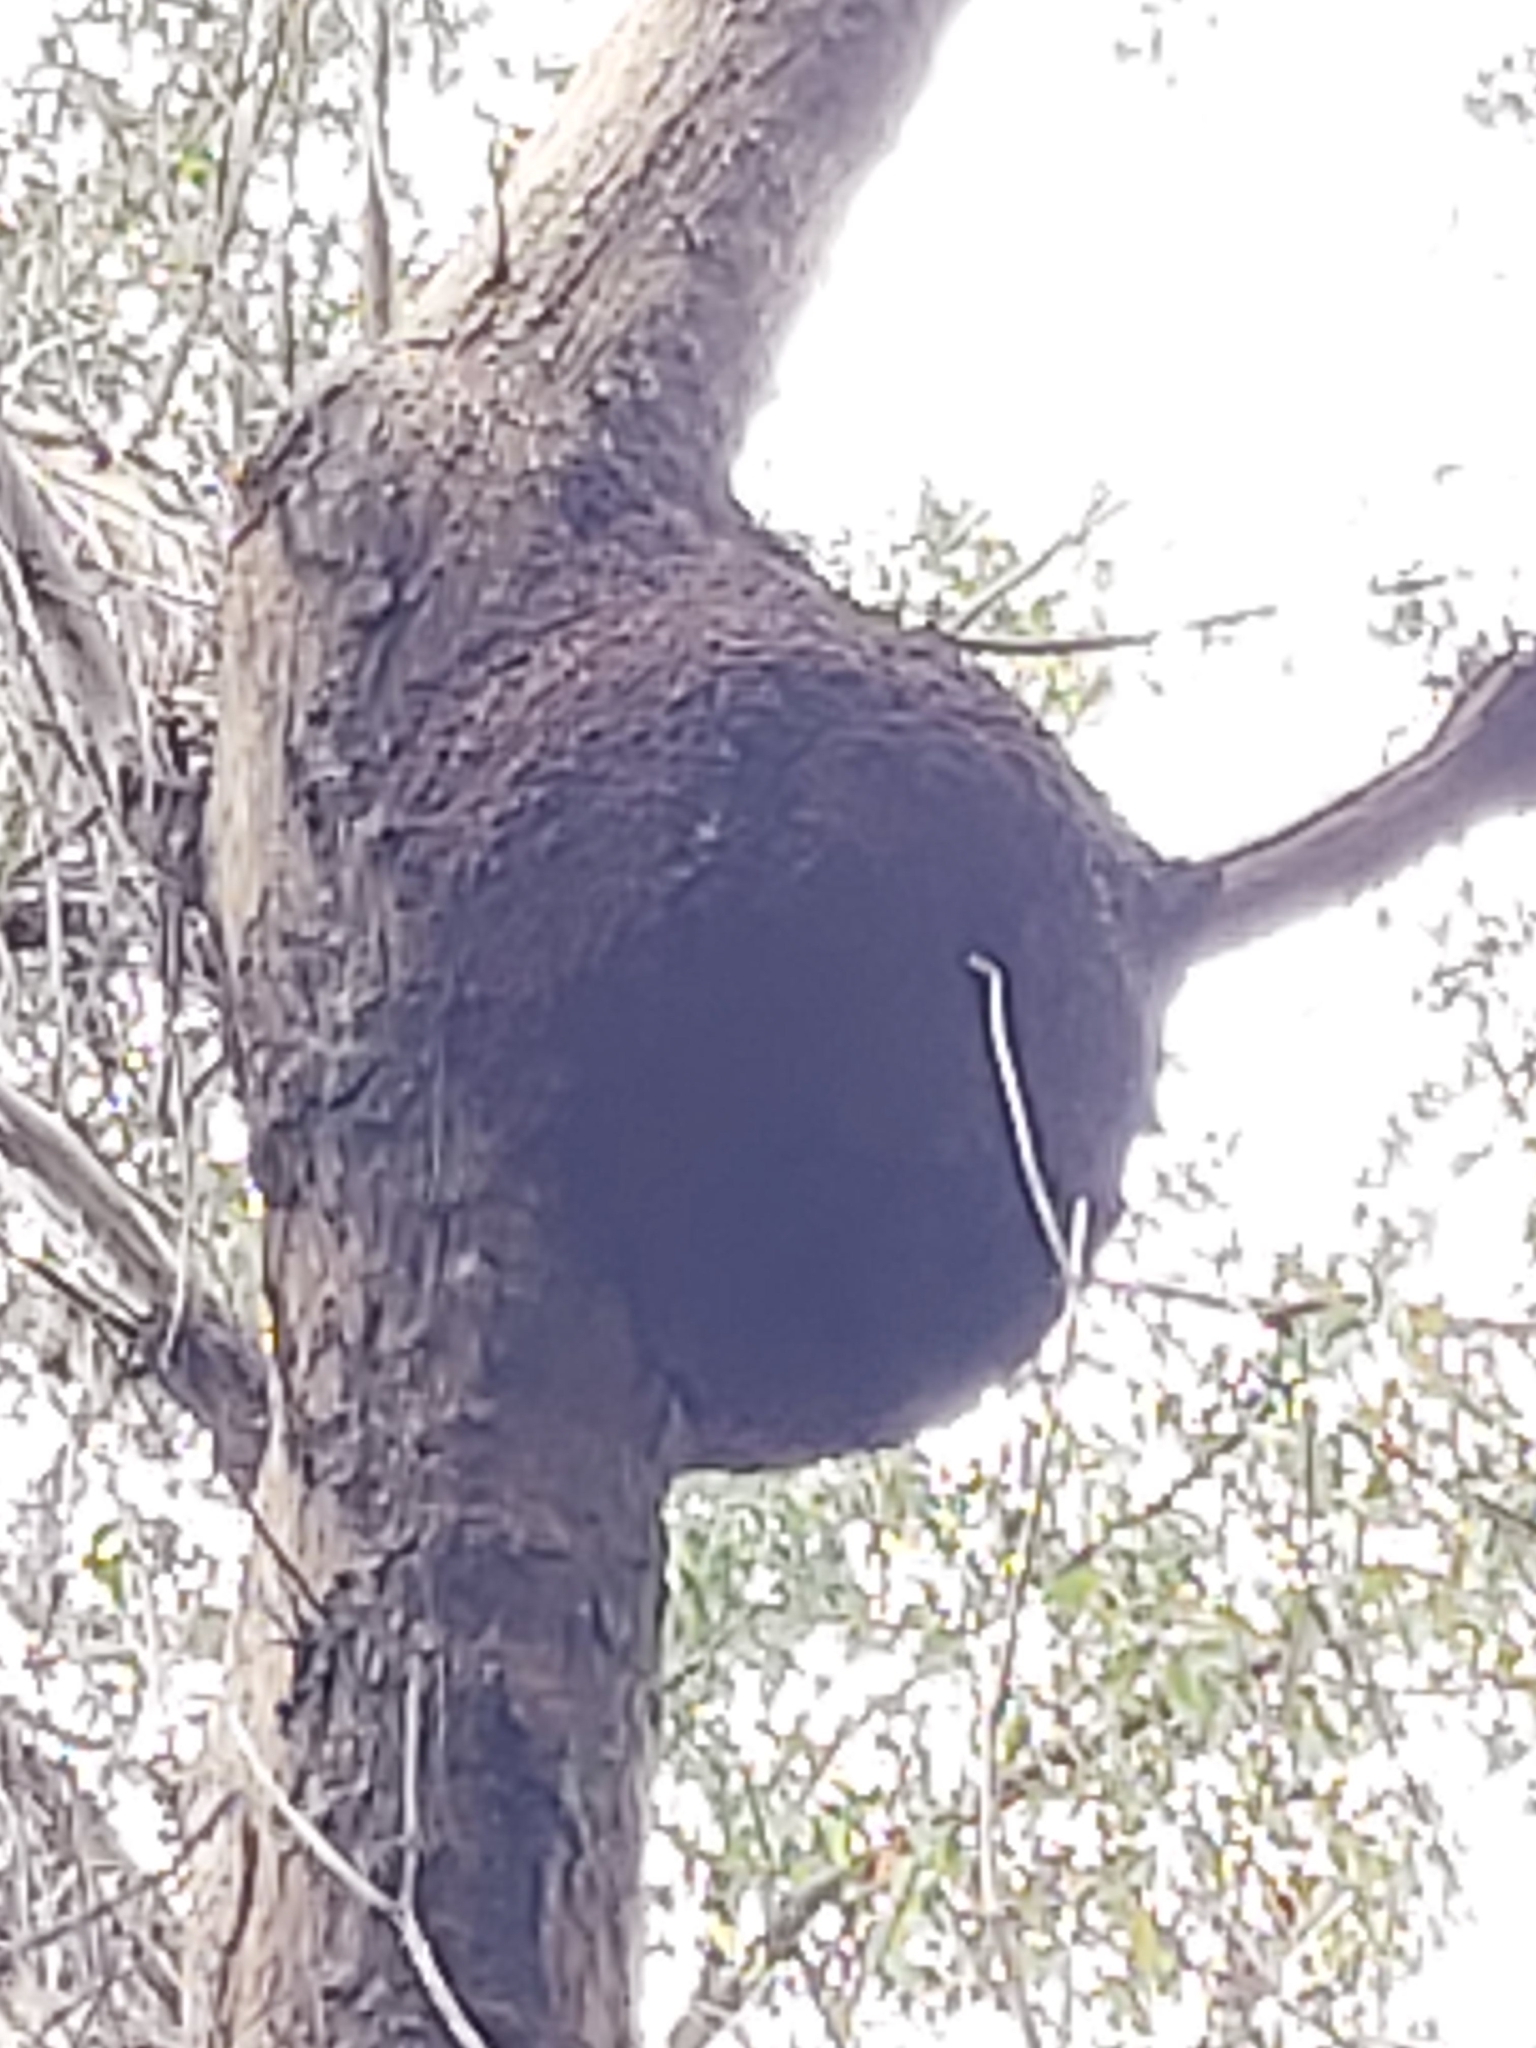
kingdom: Animalia
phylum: Arthropoda
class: Insecta
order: Blattodea
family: Termitidae
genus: Nasutitermes
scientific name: Nasutitermes walkeri
